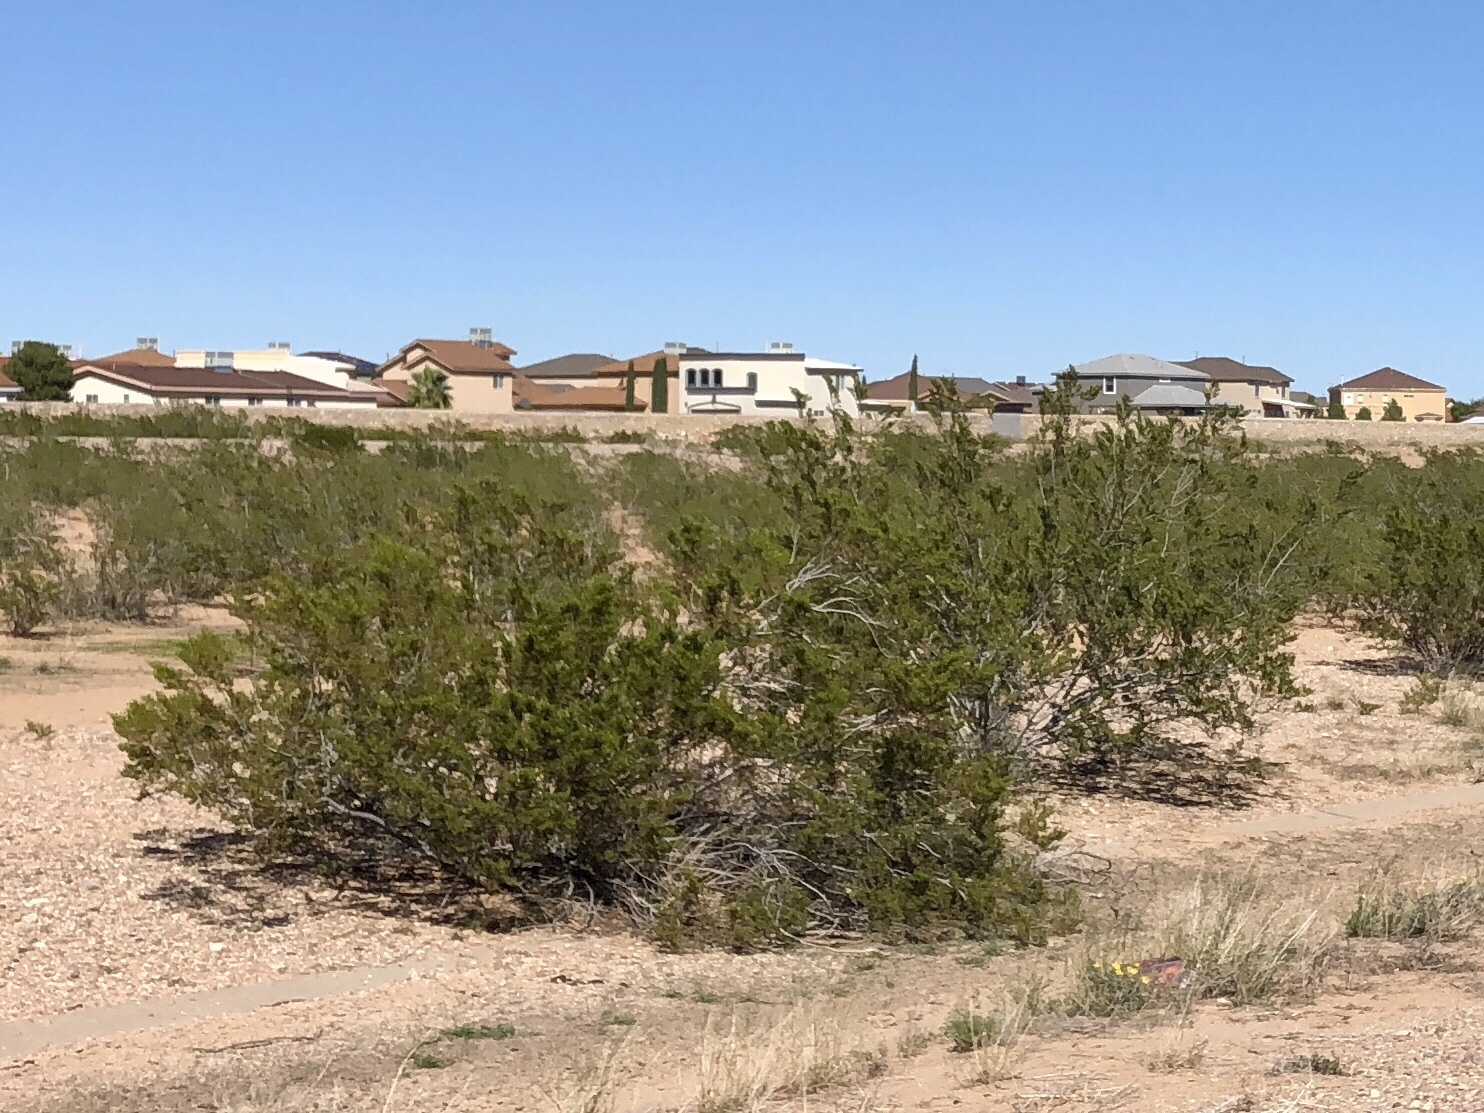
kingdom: Plantae
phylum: Tracheophyta
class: Magnoliopsida
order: Zygophyllales
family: Zygophyllaceae
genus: Larrea
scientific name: Larrea tridentata
